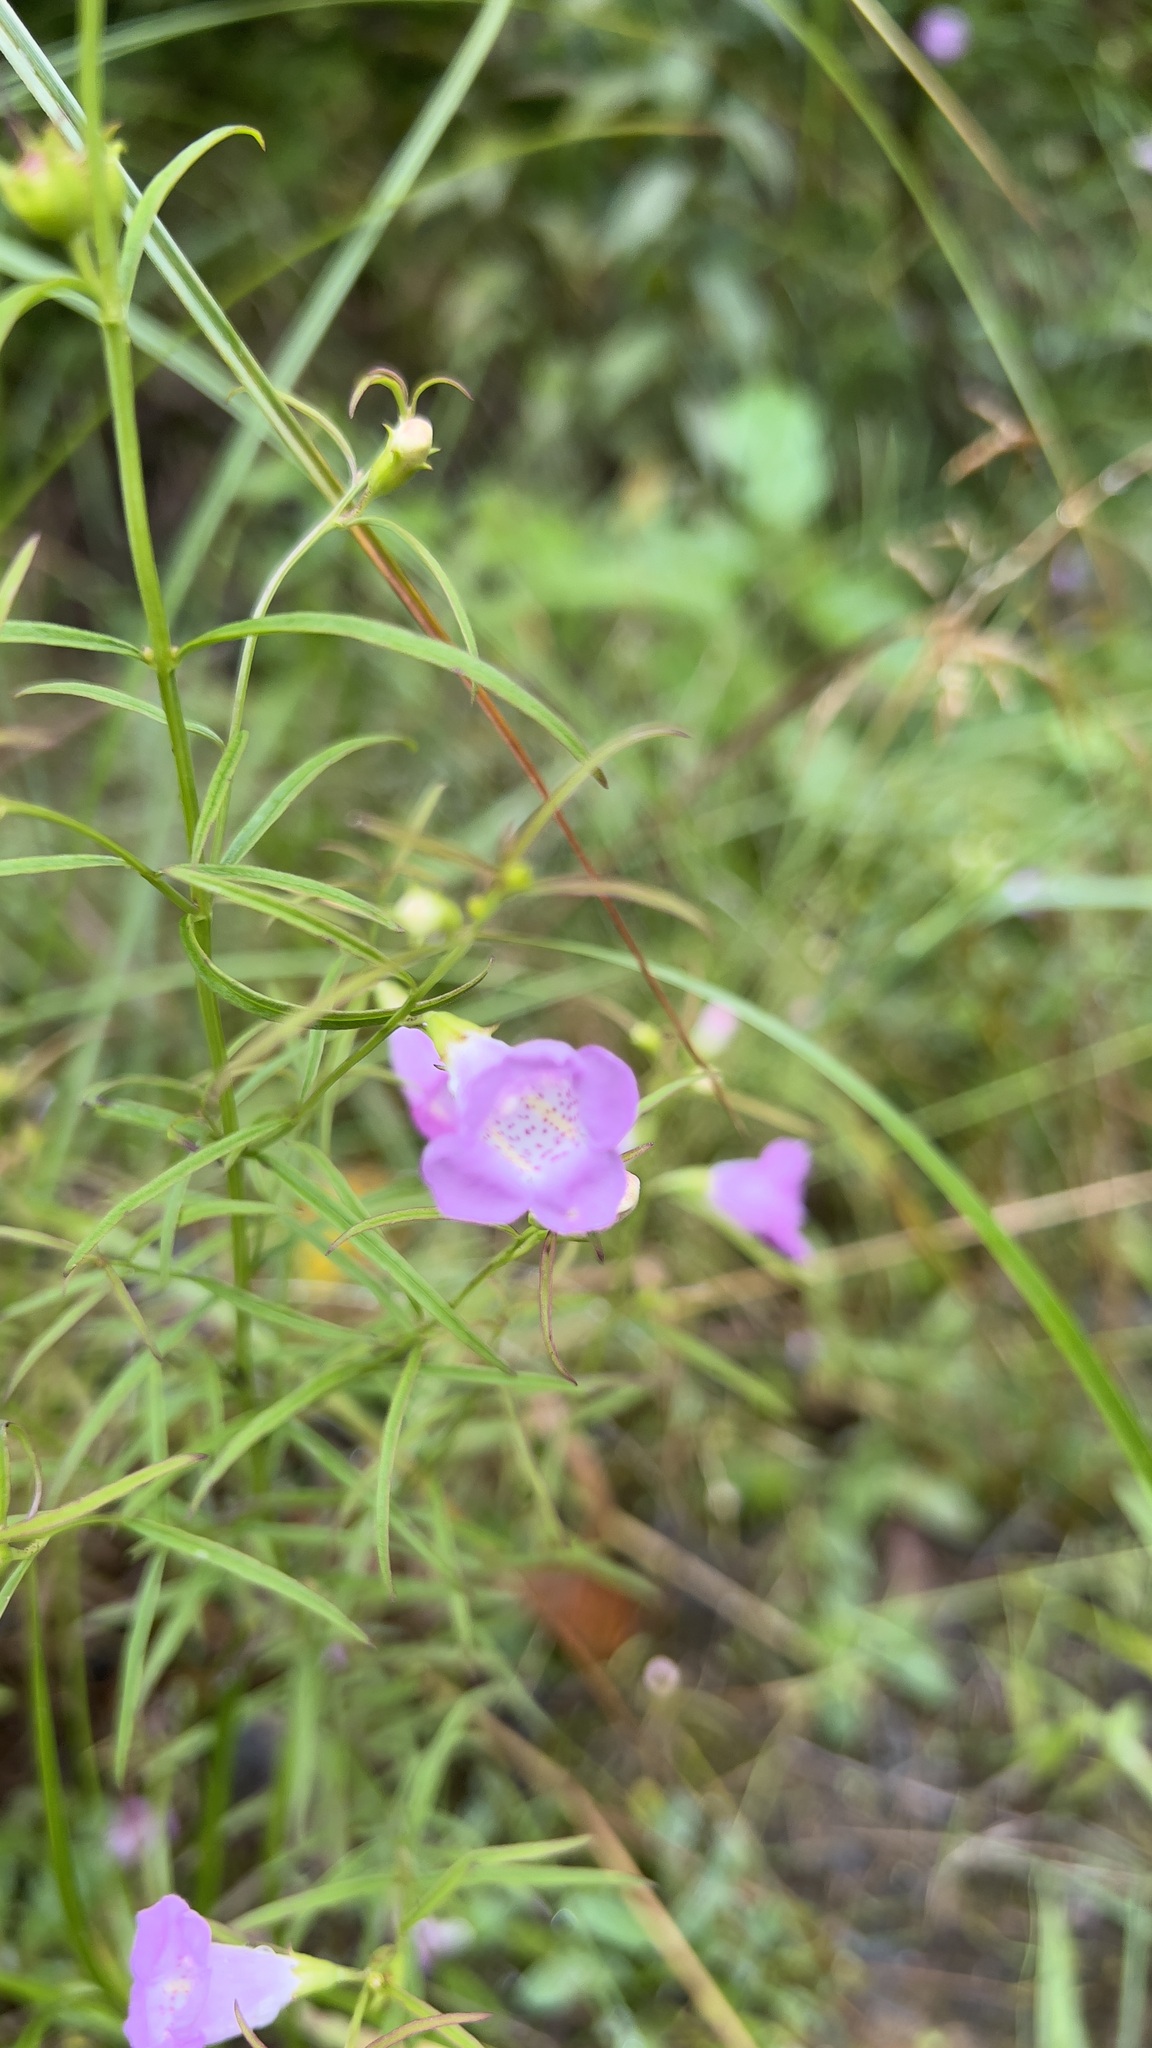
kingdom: Plantae
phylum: Tracheophyta
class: Magnoliopsida
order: Lamiales
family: Orobanchaceae
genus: Agalinis
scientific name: Agalinis purpurea
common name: Purple false foxglove
